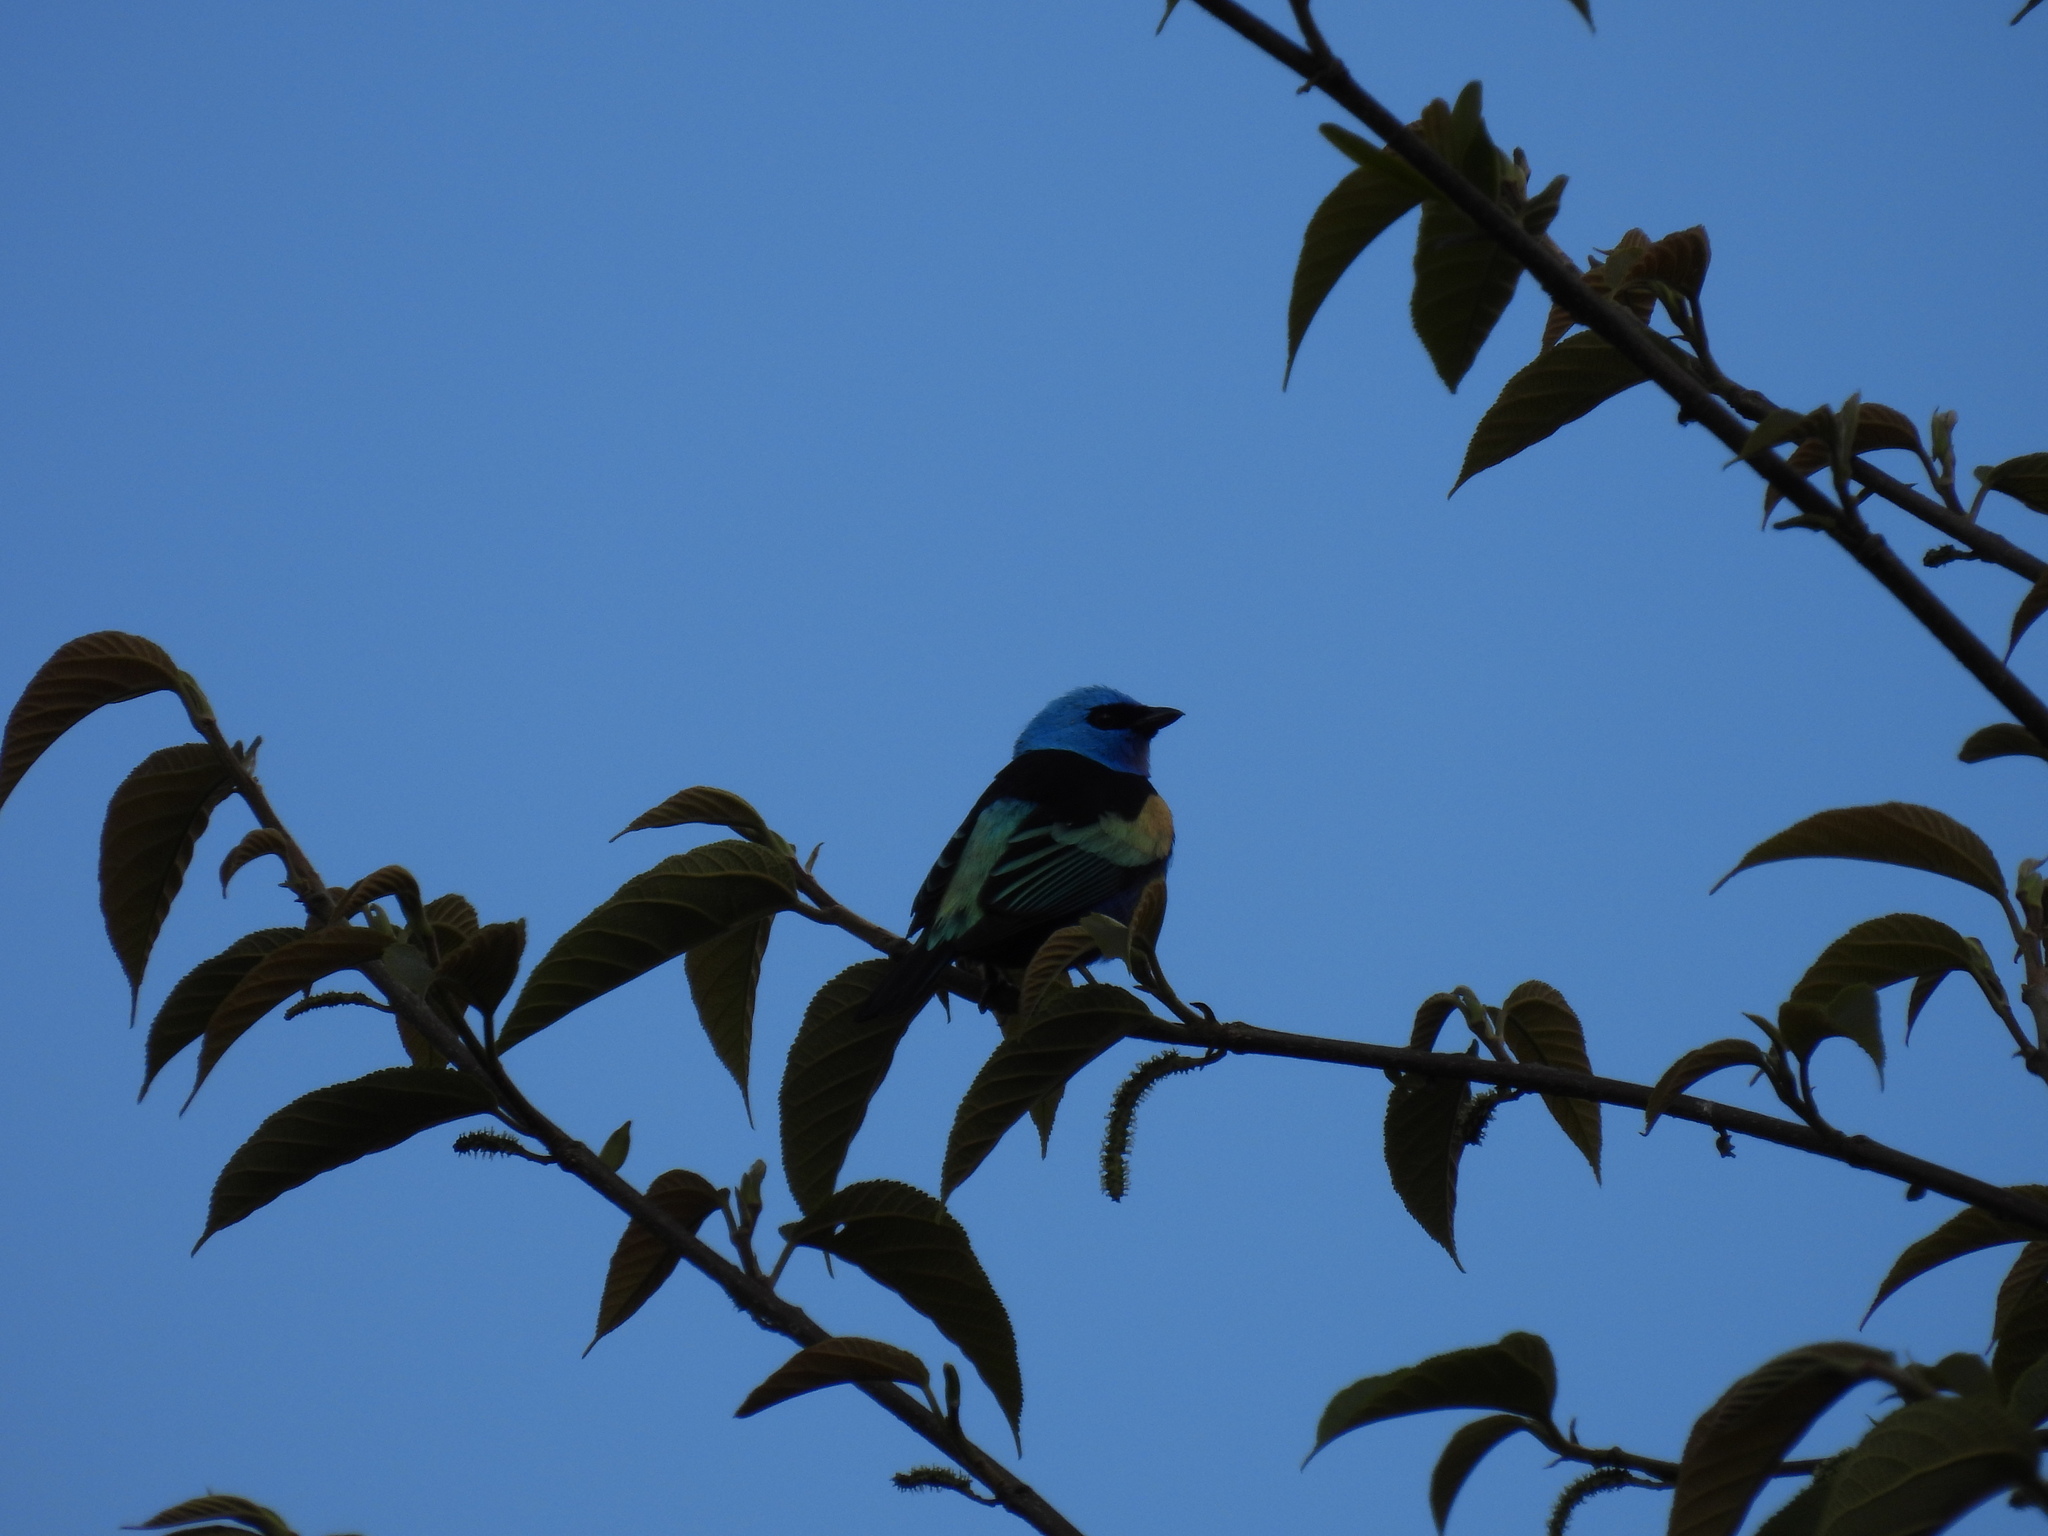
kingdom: Animalia
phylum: Chordata
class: Aves
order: Passeriformes
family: Thraupidae
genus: Stilpnia
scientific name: Stilpnia cyanicollis
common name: Blue-necked tanager
